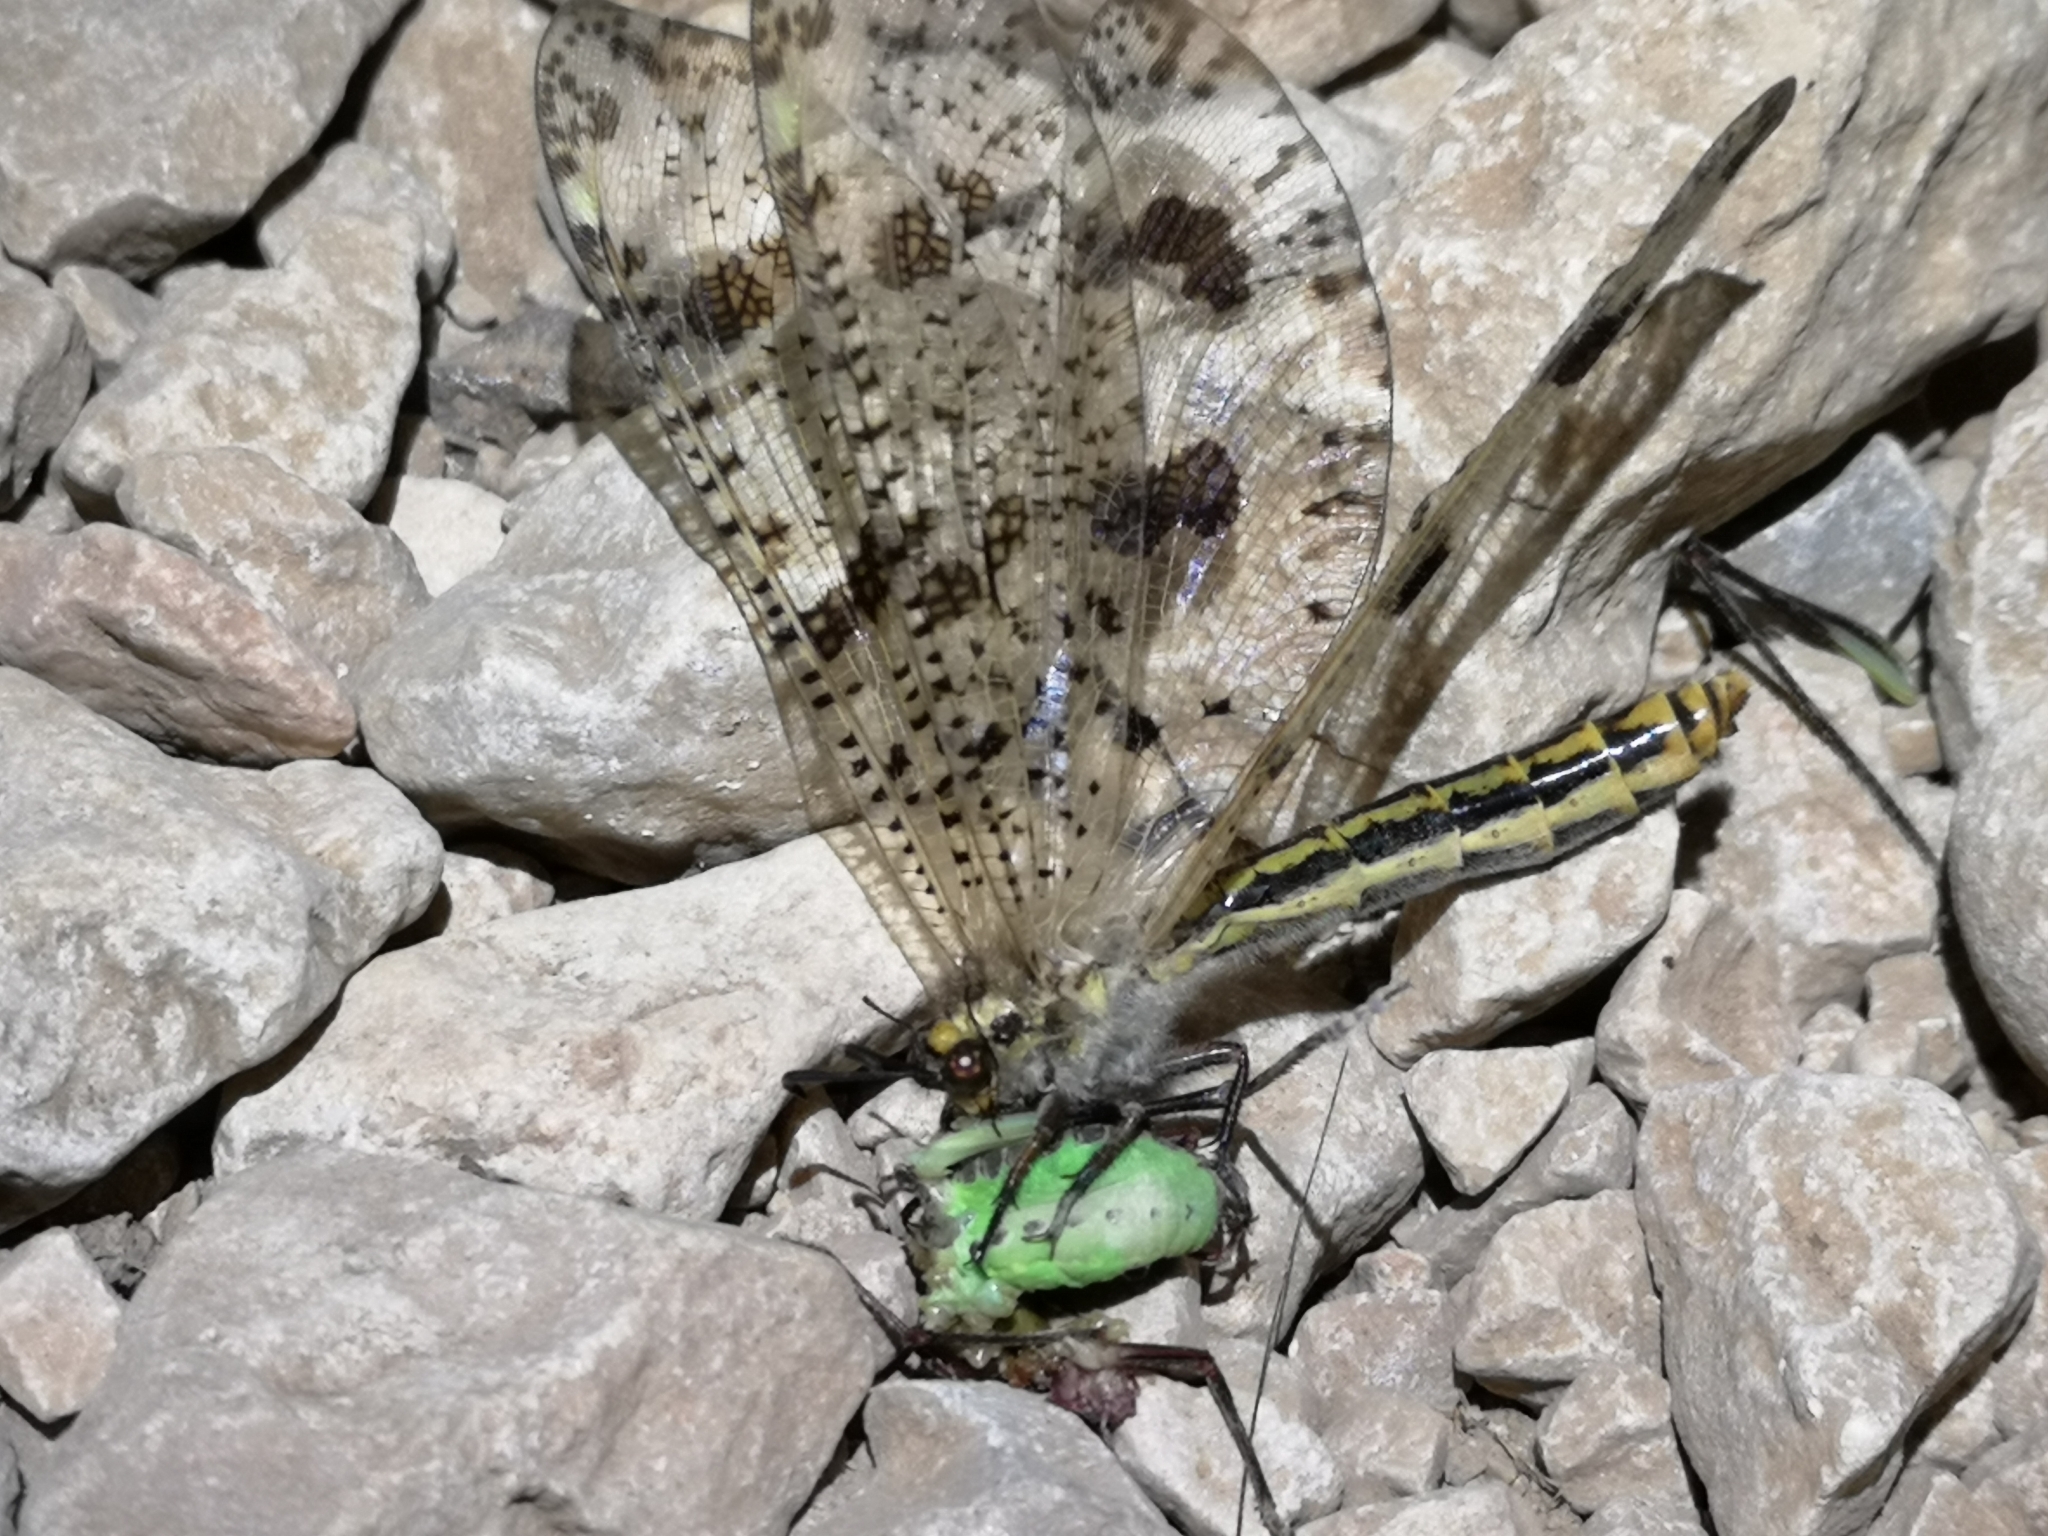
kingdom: Animalia
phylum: Arthropoda
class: Insecta
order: Neuroptera
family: Myrmeleontidae
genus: Palpares
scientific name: Palpares libelluloides
